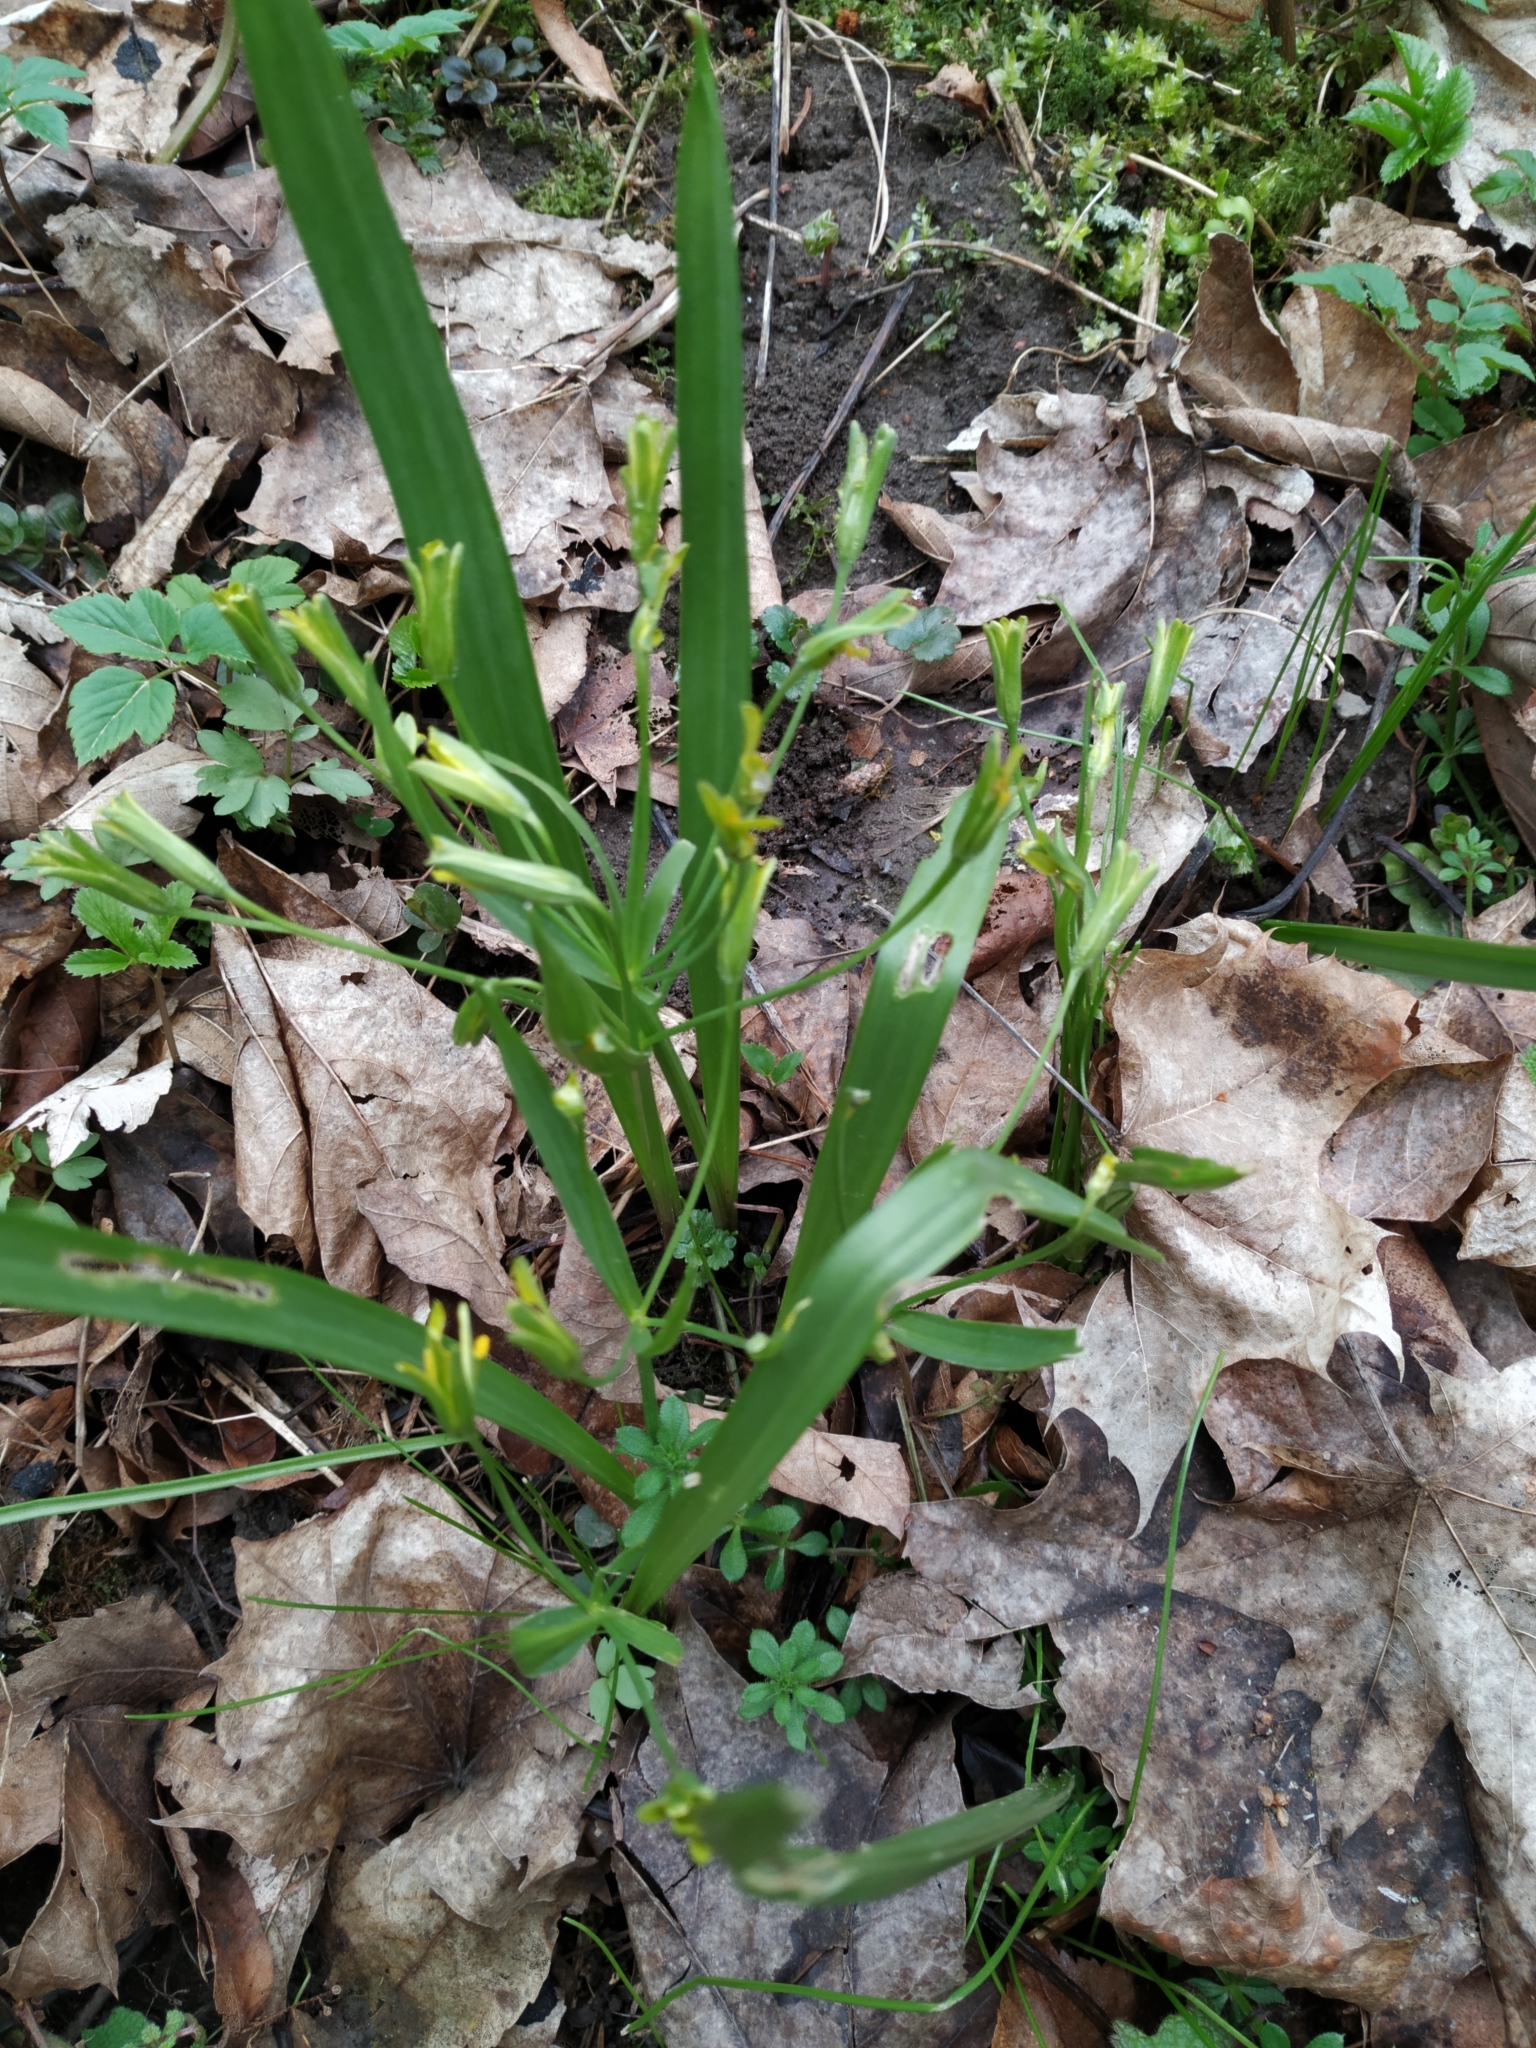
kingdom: Plantae
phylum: Tracheophyta
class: Liliopsida
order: Liliales
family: Liliaceae
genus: Gagea
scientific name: Gagea lutea
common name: Yellow star-of-bethlehem
